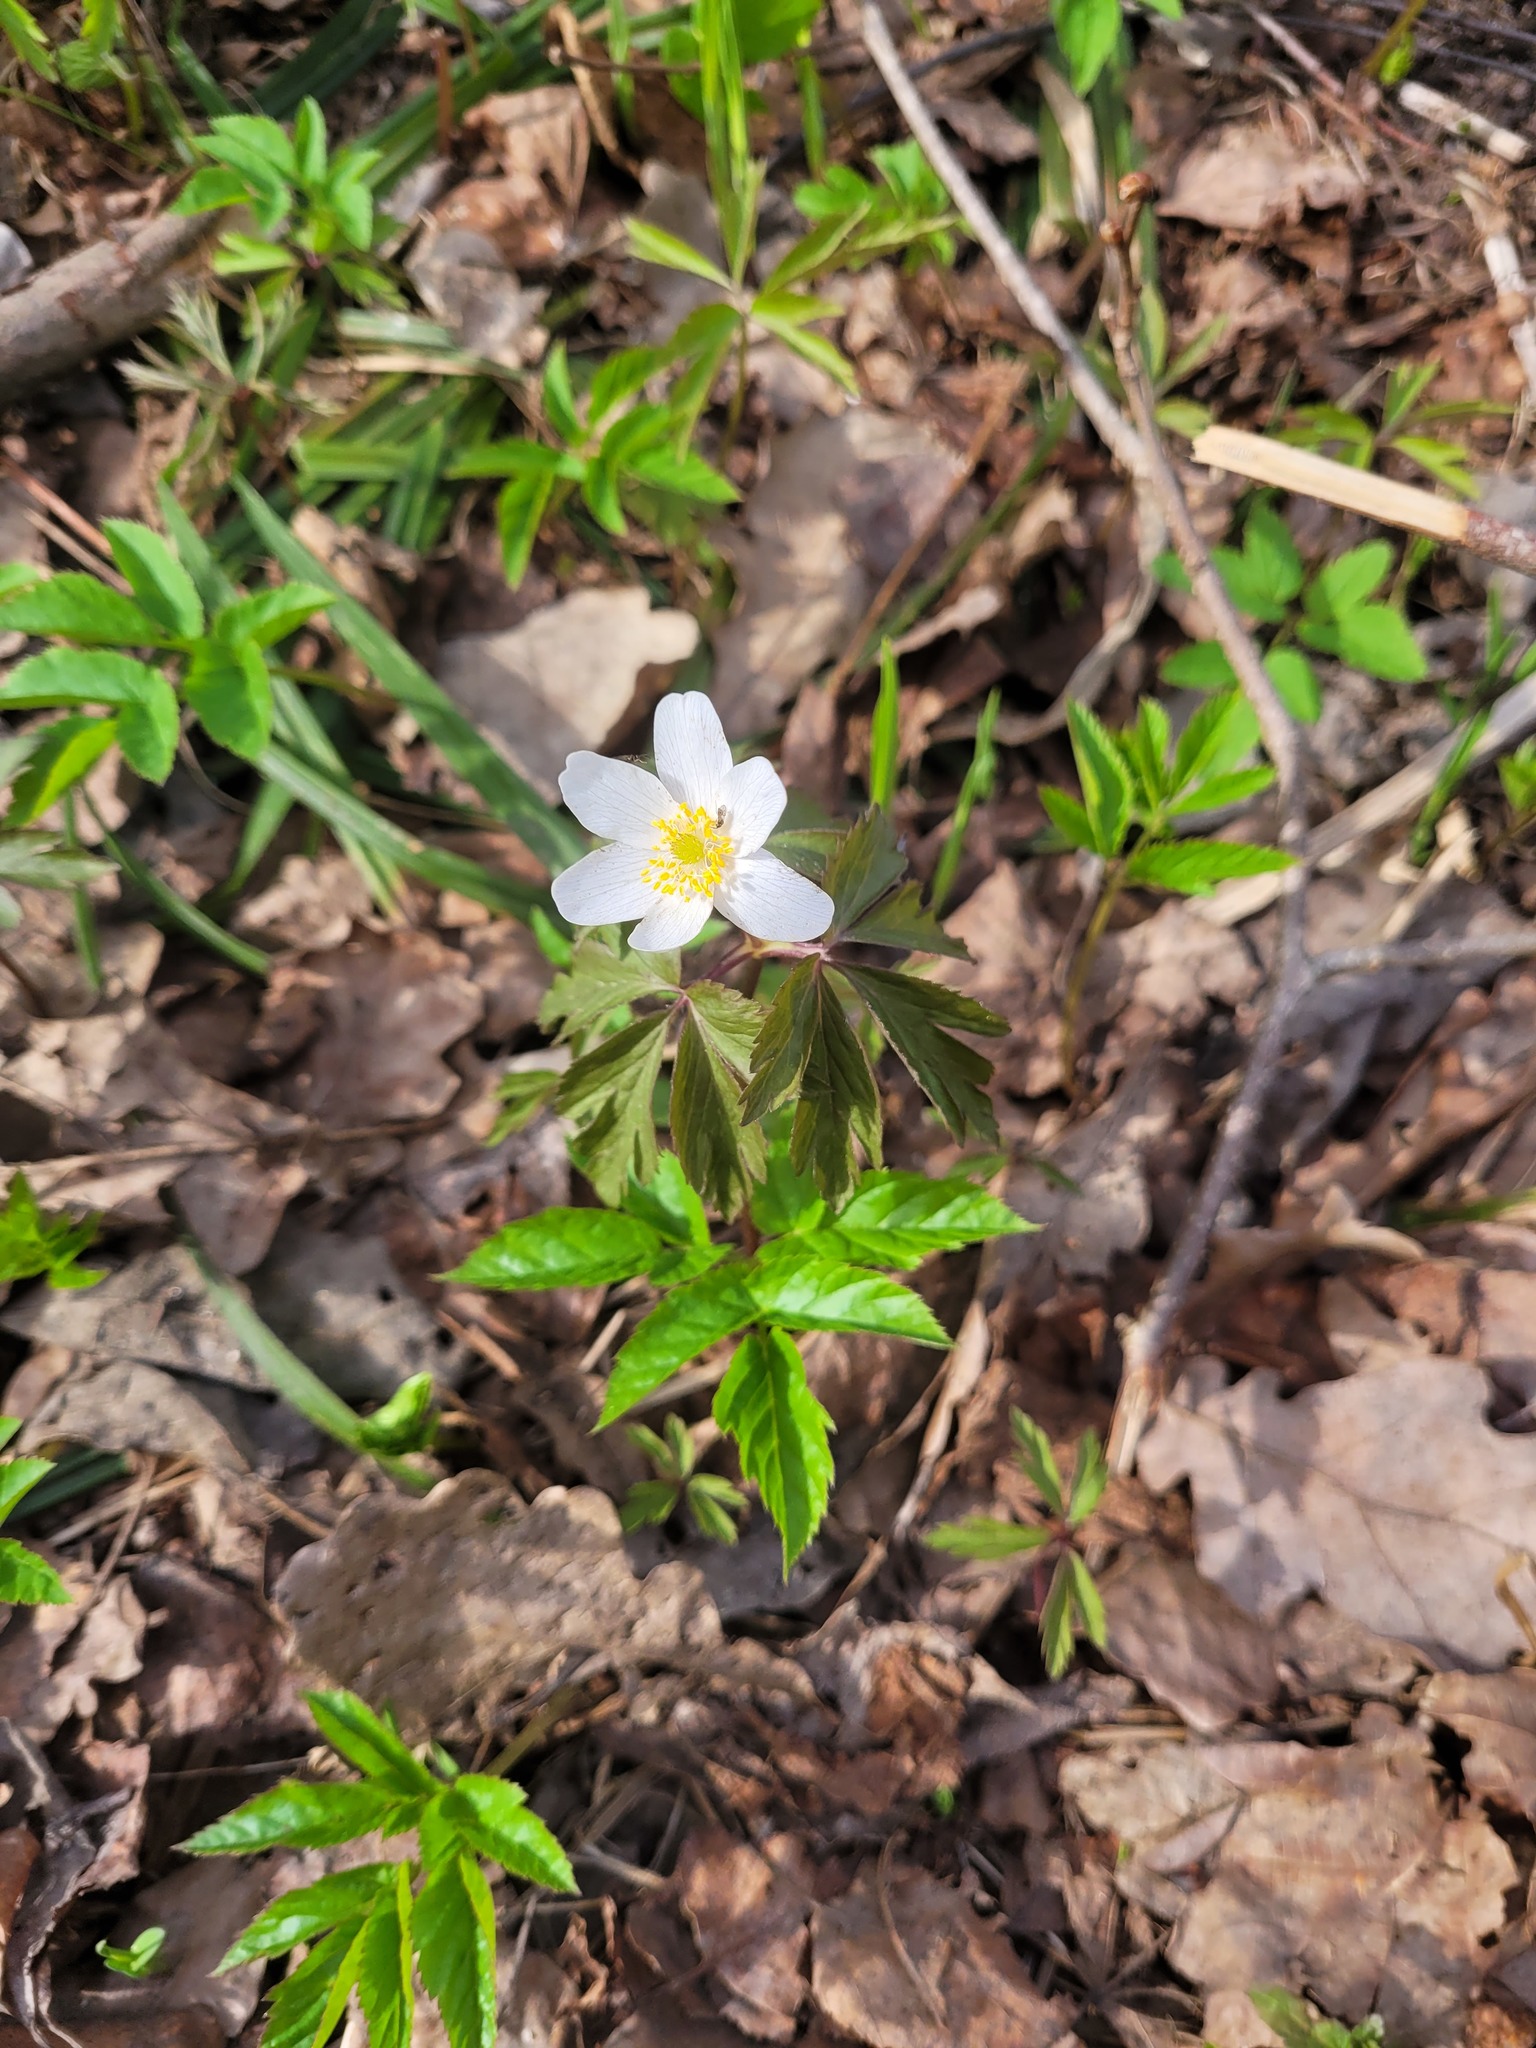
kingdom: Plantae
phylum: Tracheophyta
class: Magnoliopsida
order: Ranunculales
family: Ranunculaceae
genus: Anemone
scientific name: Anemone nemorosa
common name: Wood anemone
